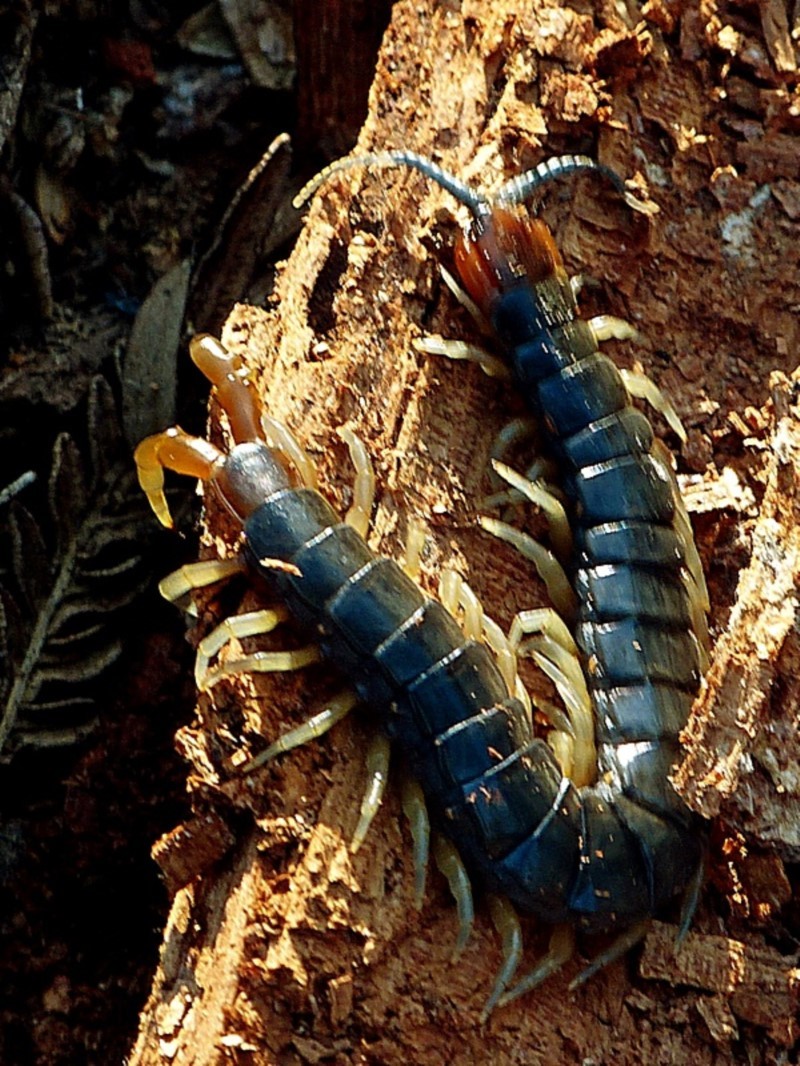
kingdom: Animalia
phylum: Arthropoda
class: Chilopoda
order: Scolopendromorpha
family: Scolopendridae
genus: Cormocephalus
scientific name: Cormocephalus westwoodi
